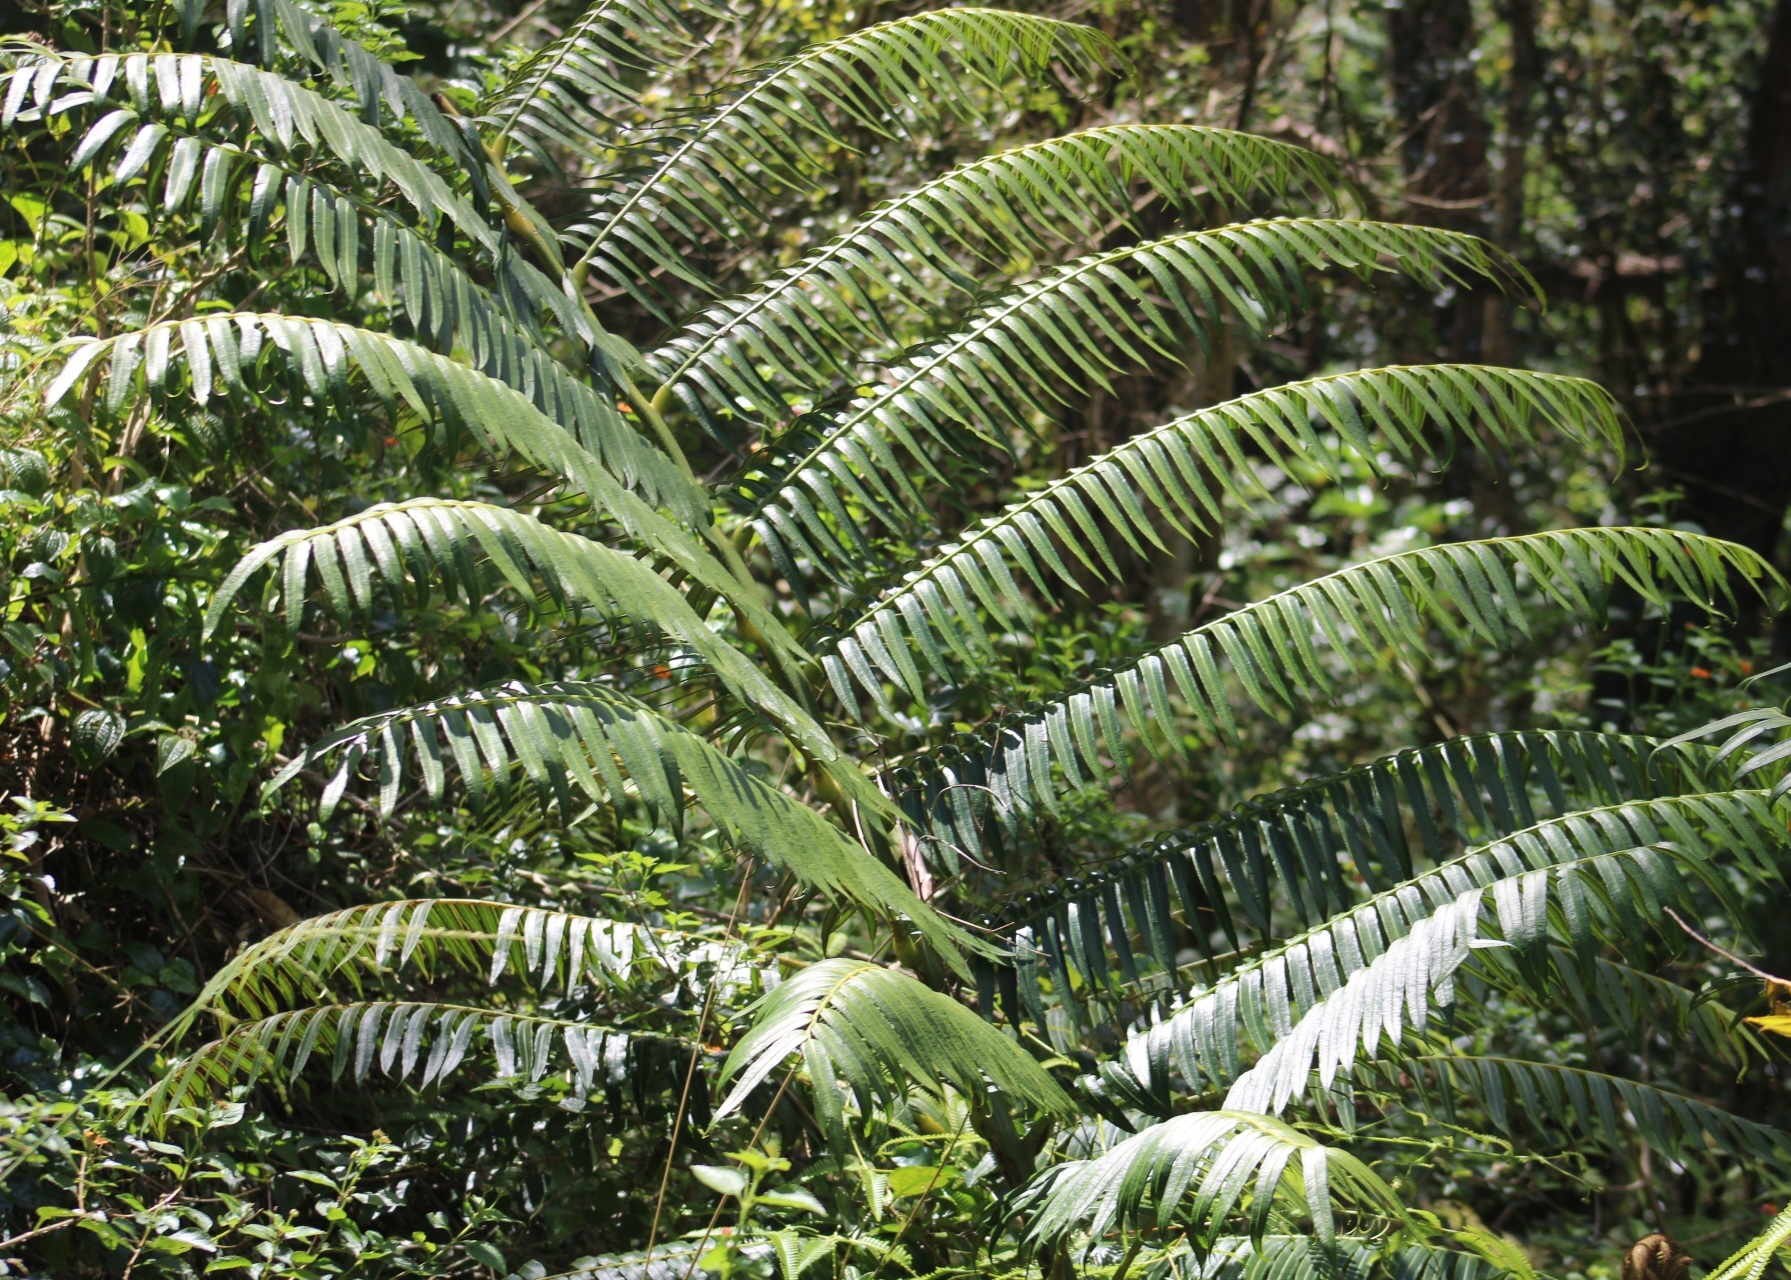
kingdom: Plantae
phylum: Tracheophyta
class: Polypodiopsida
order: Marattiales
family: Marattiaceae
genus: Angiopteris
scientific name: Angiopteris evecta
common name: Mule's-foot fern
